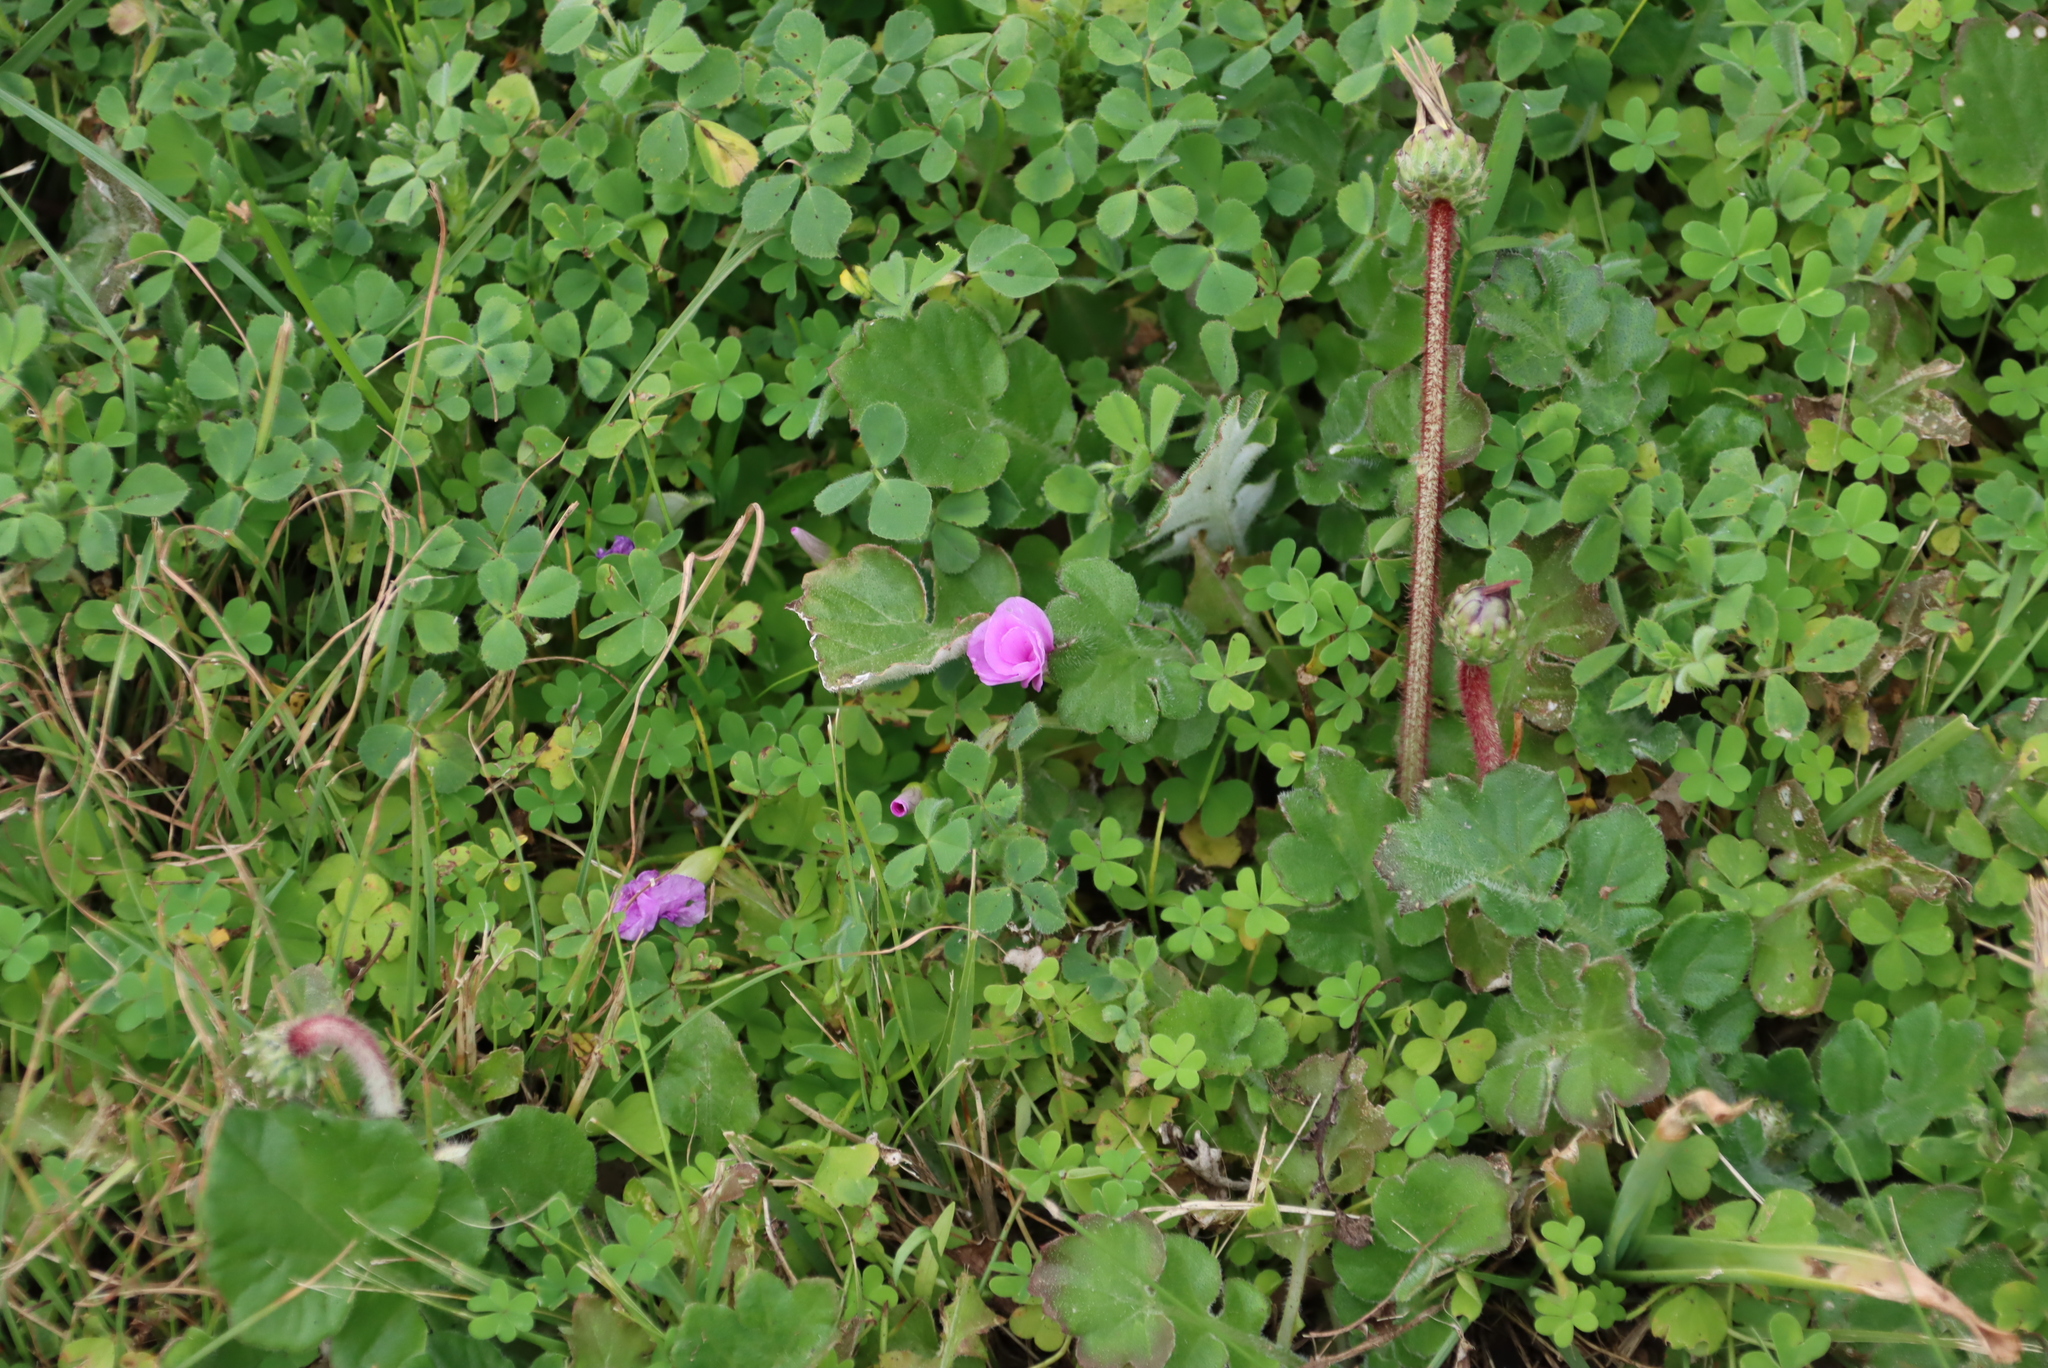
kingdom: Plantae
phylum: Tracheophyta
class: Magnoliopsida
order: Oxalidales
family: Oxalidaceae
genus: Oxalis
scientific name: Oxalis zeekoevleyensis
